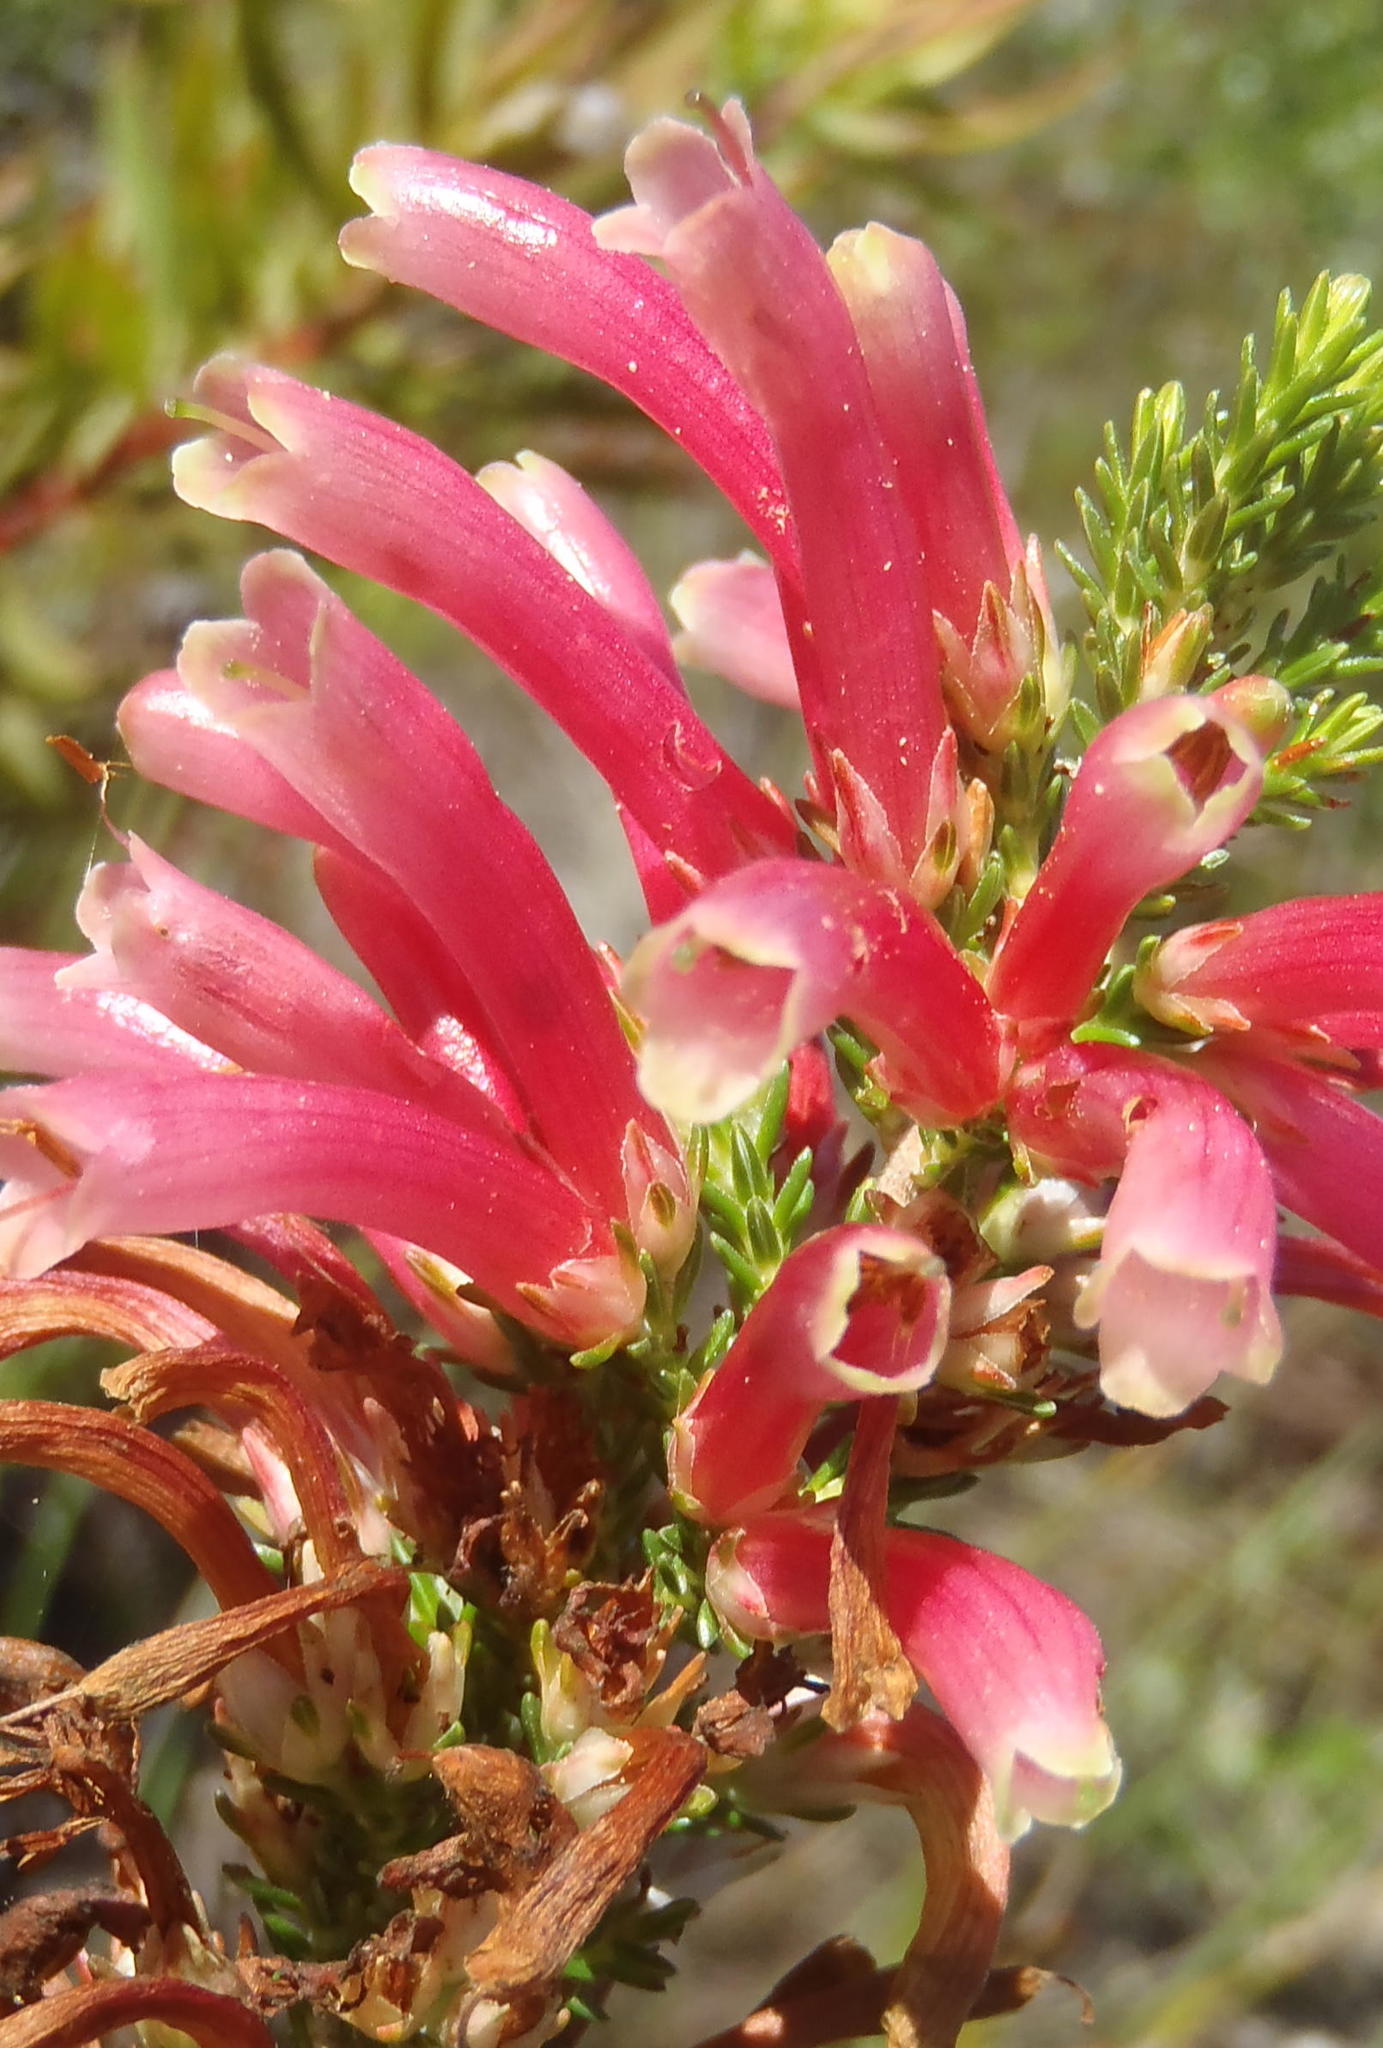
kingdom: Plantae
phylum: Tracheophyta
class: Magnoliopsida
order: Ericales
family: Ericaceae
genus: Erica
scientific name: Erica discolor
